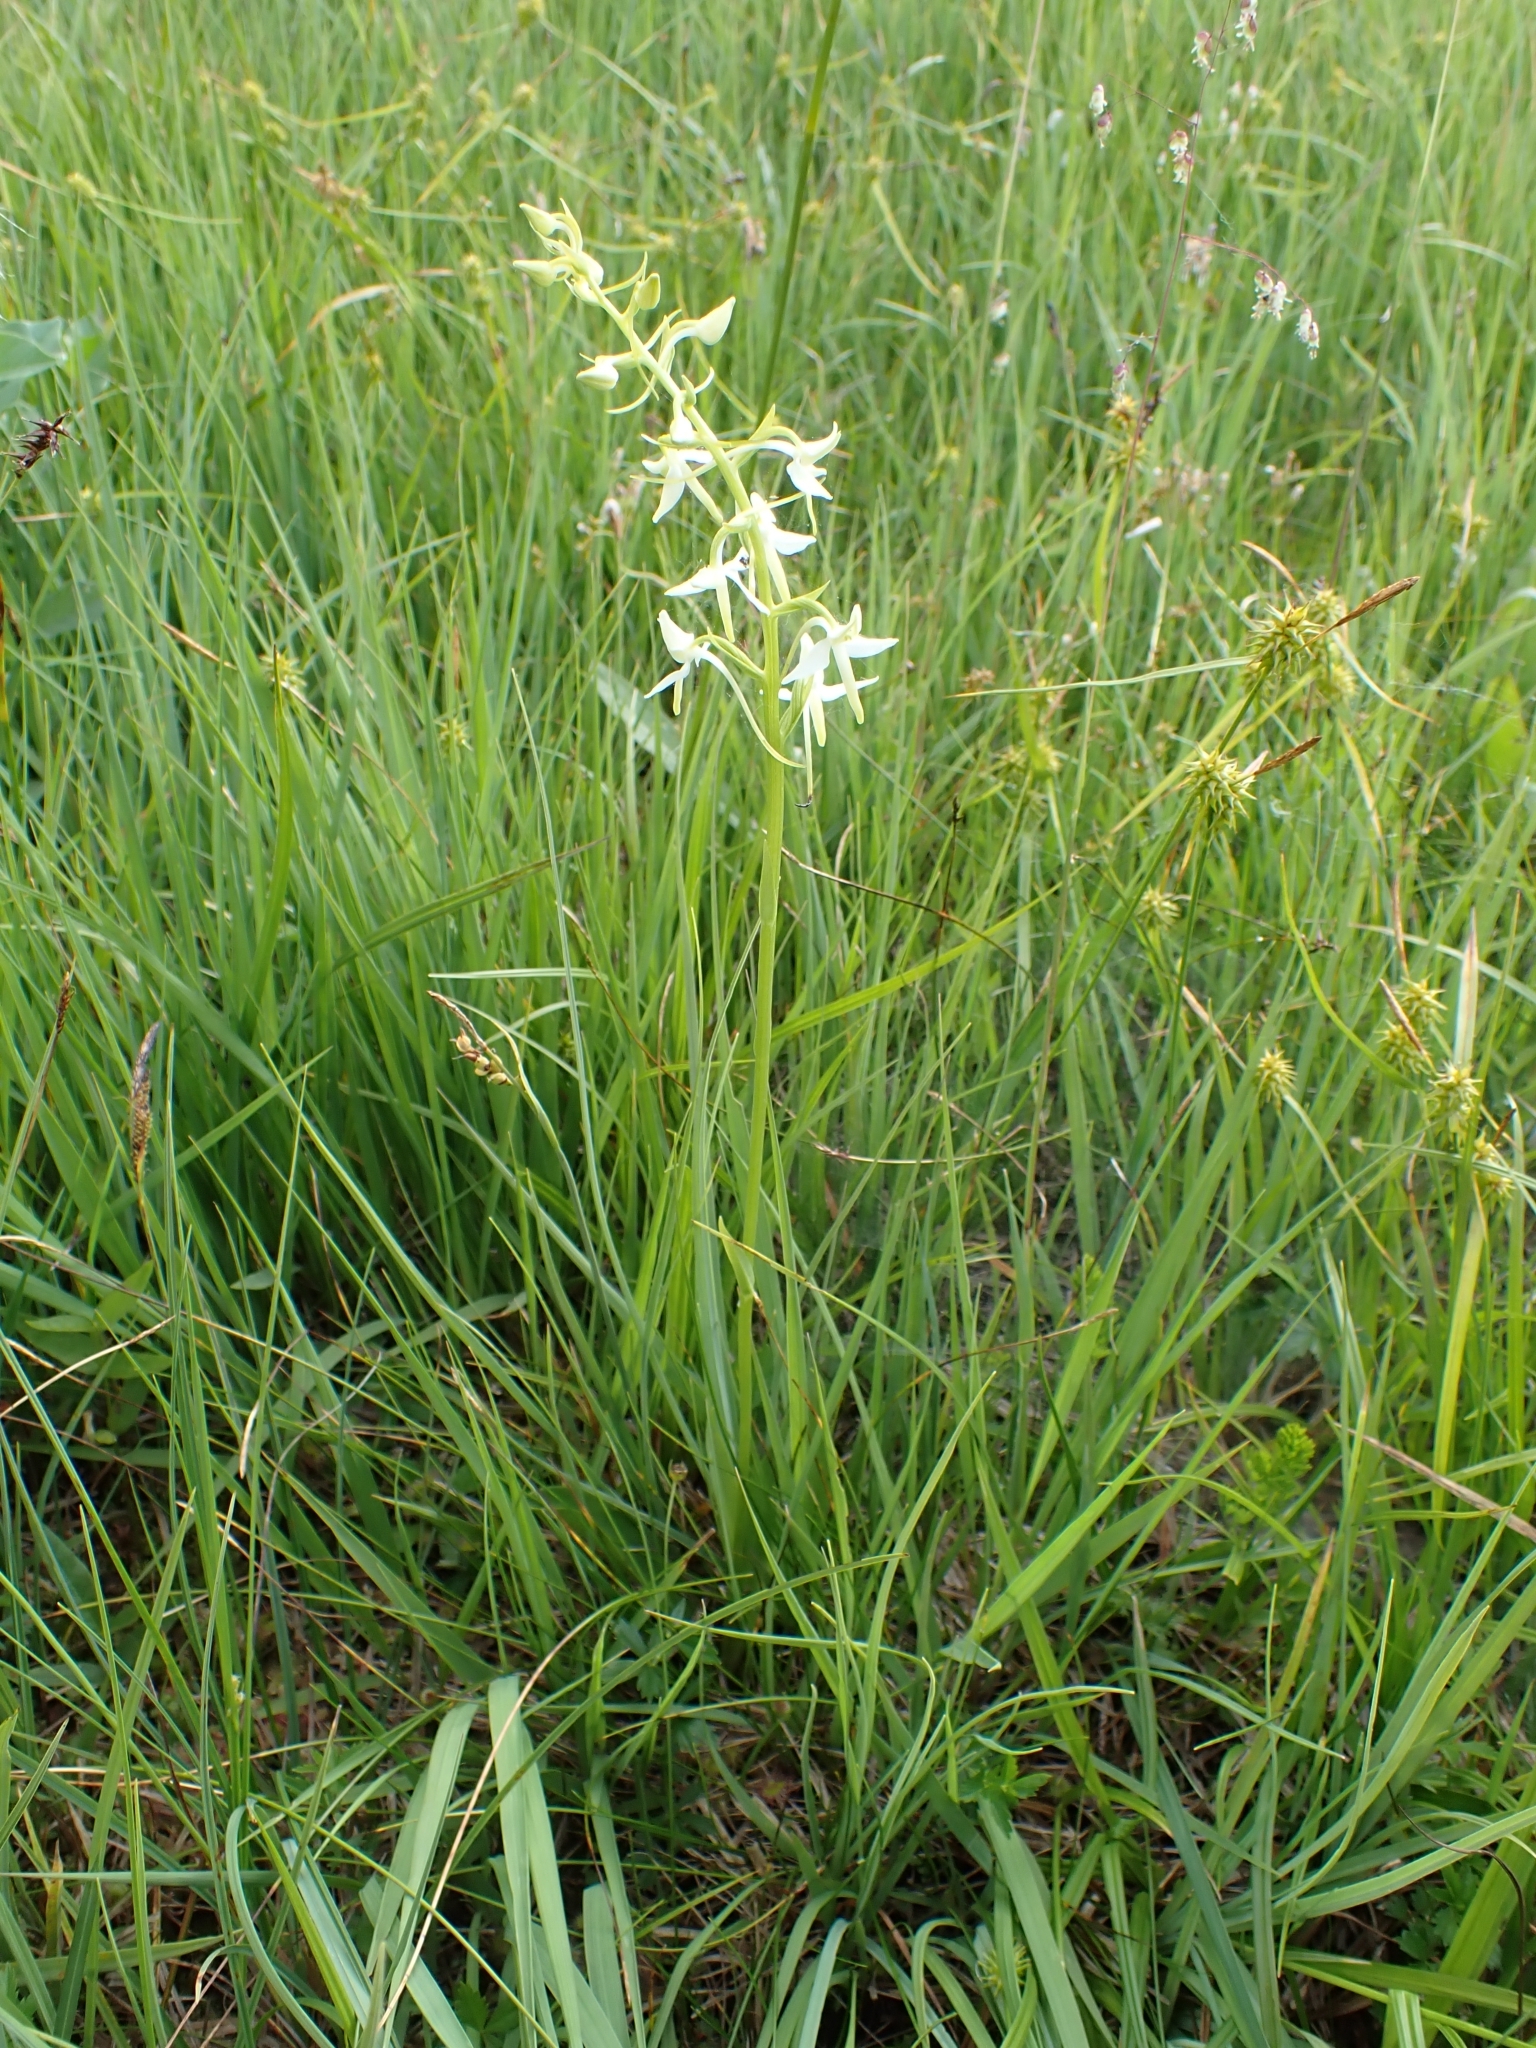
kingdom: Plantae
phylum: Tracheophyta
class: Liliopsida
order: Asparagales
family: Orchidaceae
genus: Platanthera
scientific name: Platanthera bifolia
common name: Lesser butterfly-orchid
